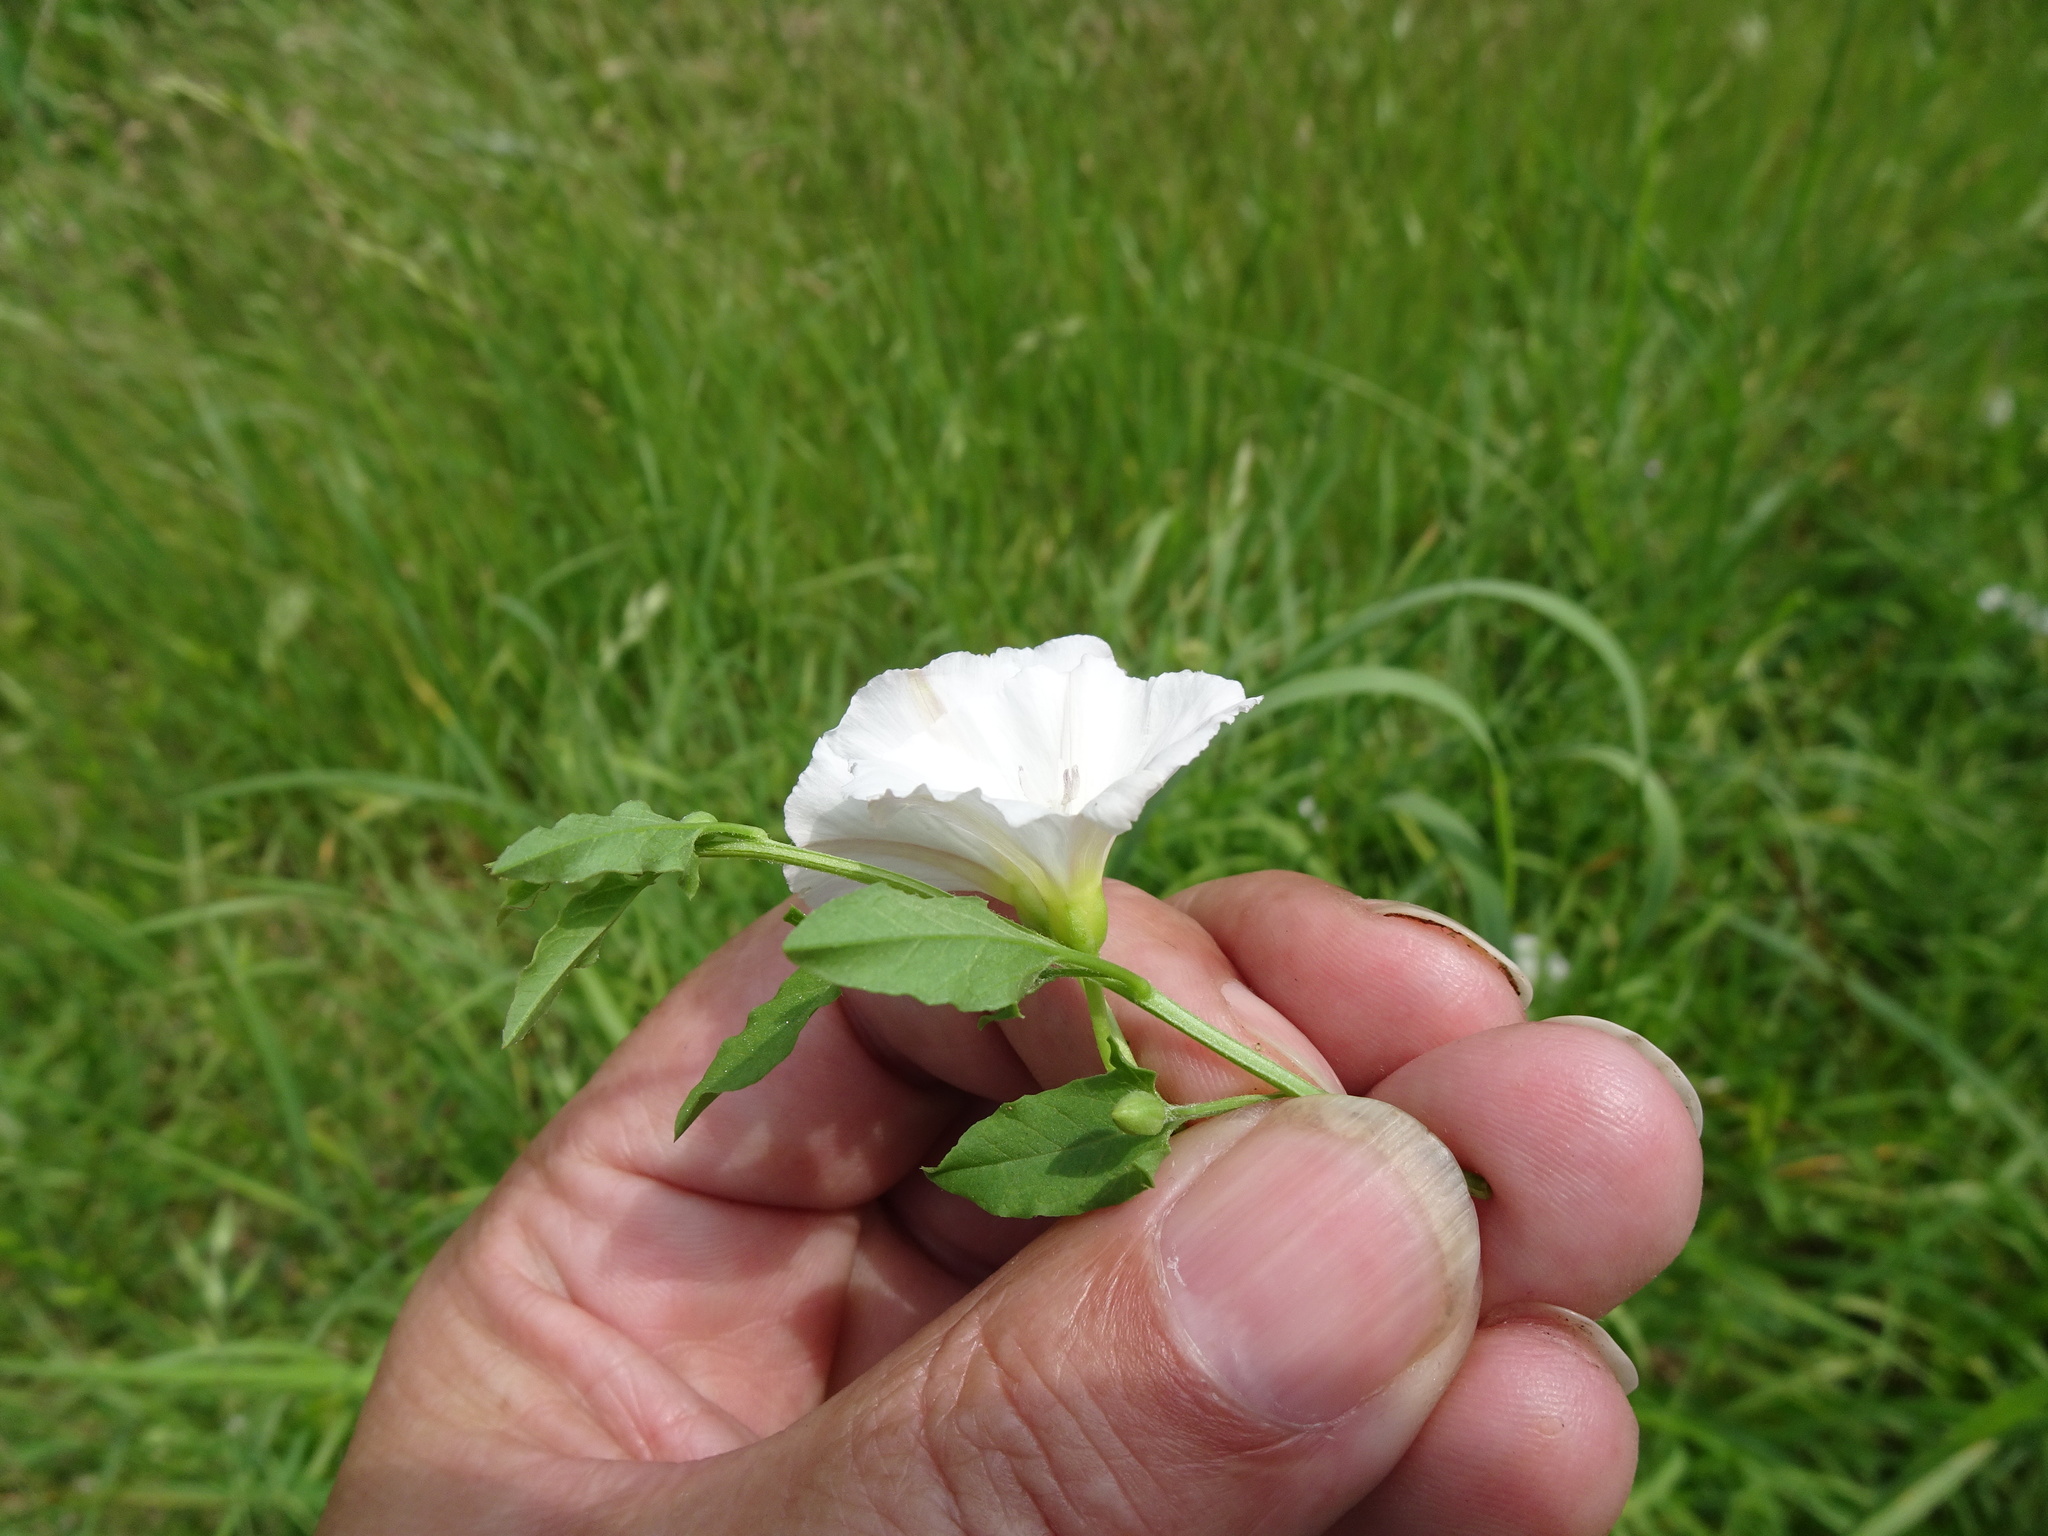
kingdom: Plantae
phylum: Tracheophyta
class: Magnoliopsida
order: Solanales
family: Convolvulaceae
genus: Convolvulus
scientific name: Convolvulus arvensis
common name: Field bindweed
